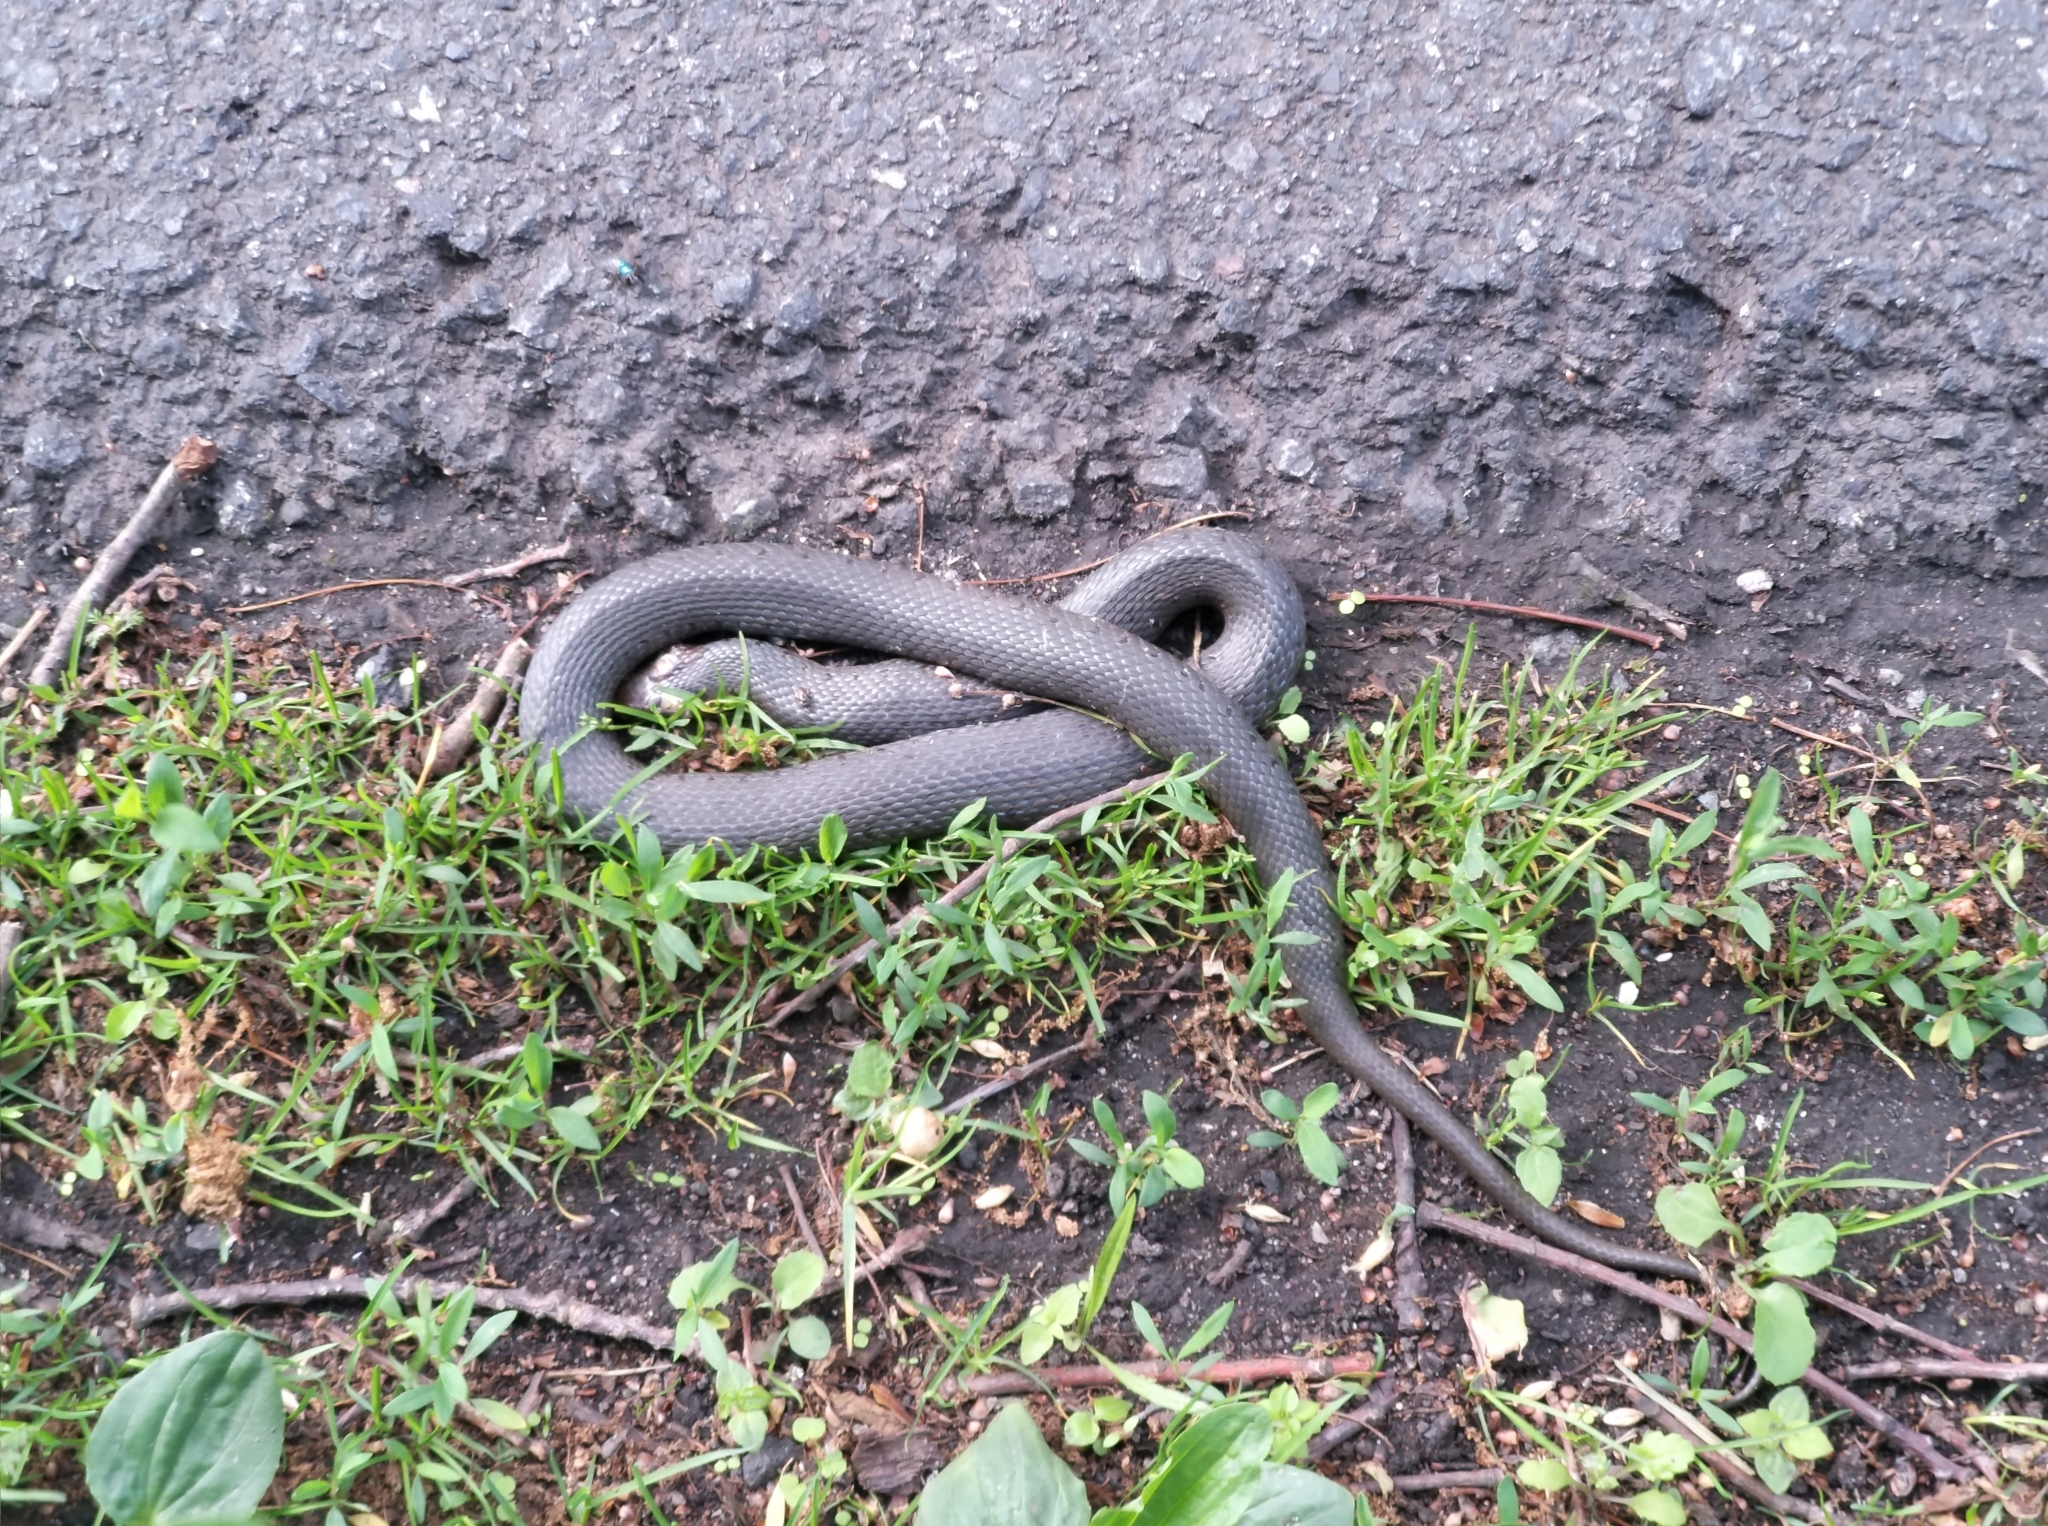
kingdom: Animalia
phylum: Chordata
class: Squamata
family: Colubridae
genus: Natrix
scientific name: Natrix natrix
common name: Grass snake
